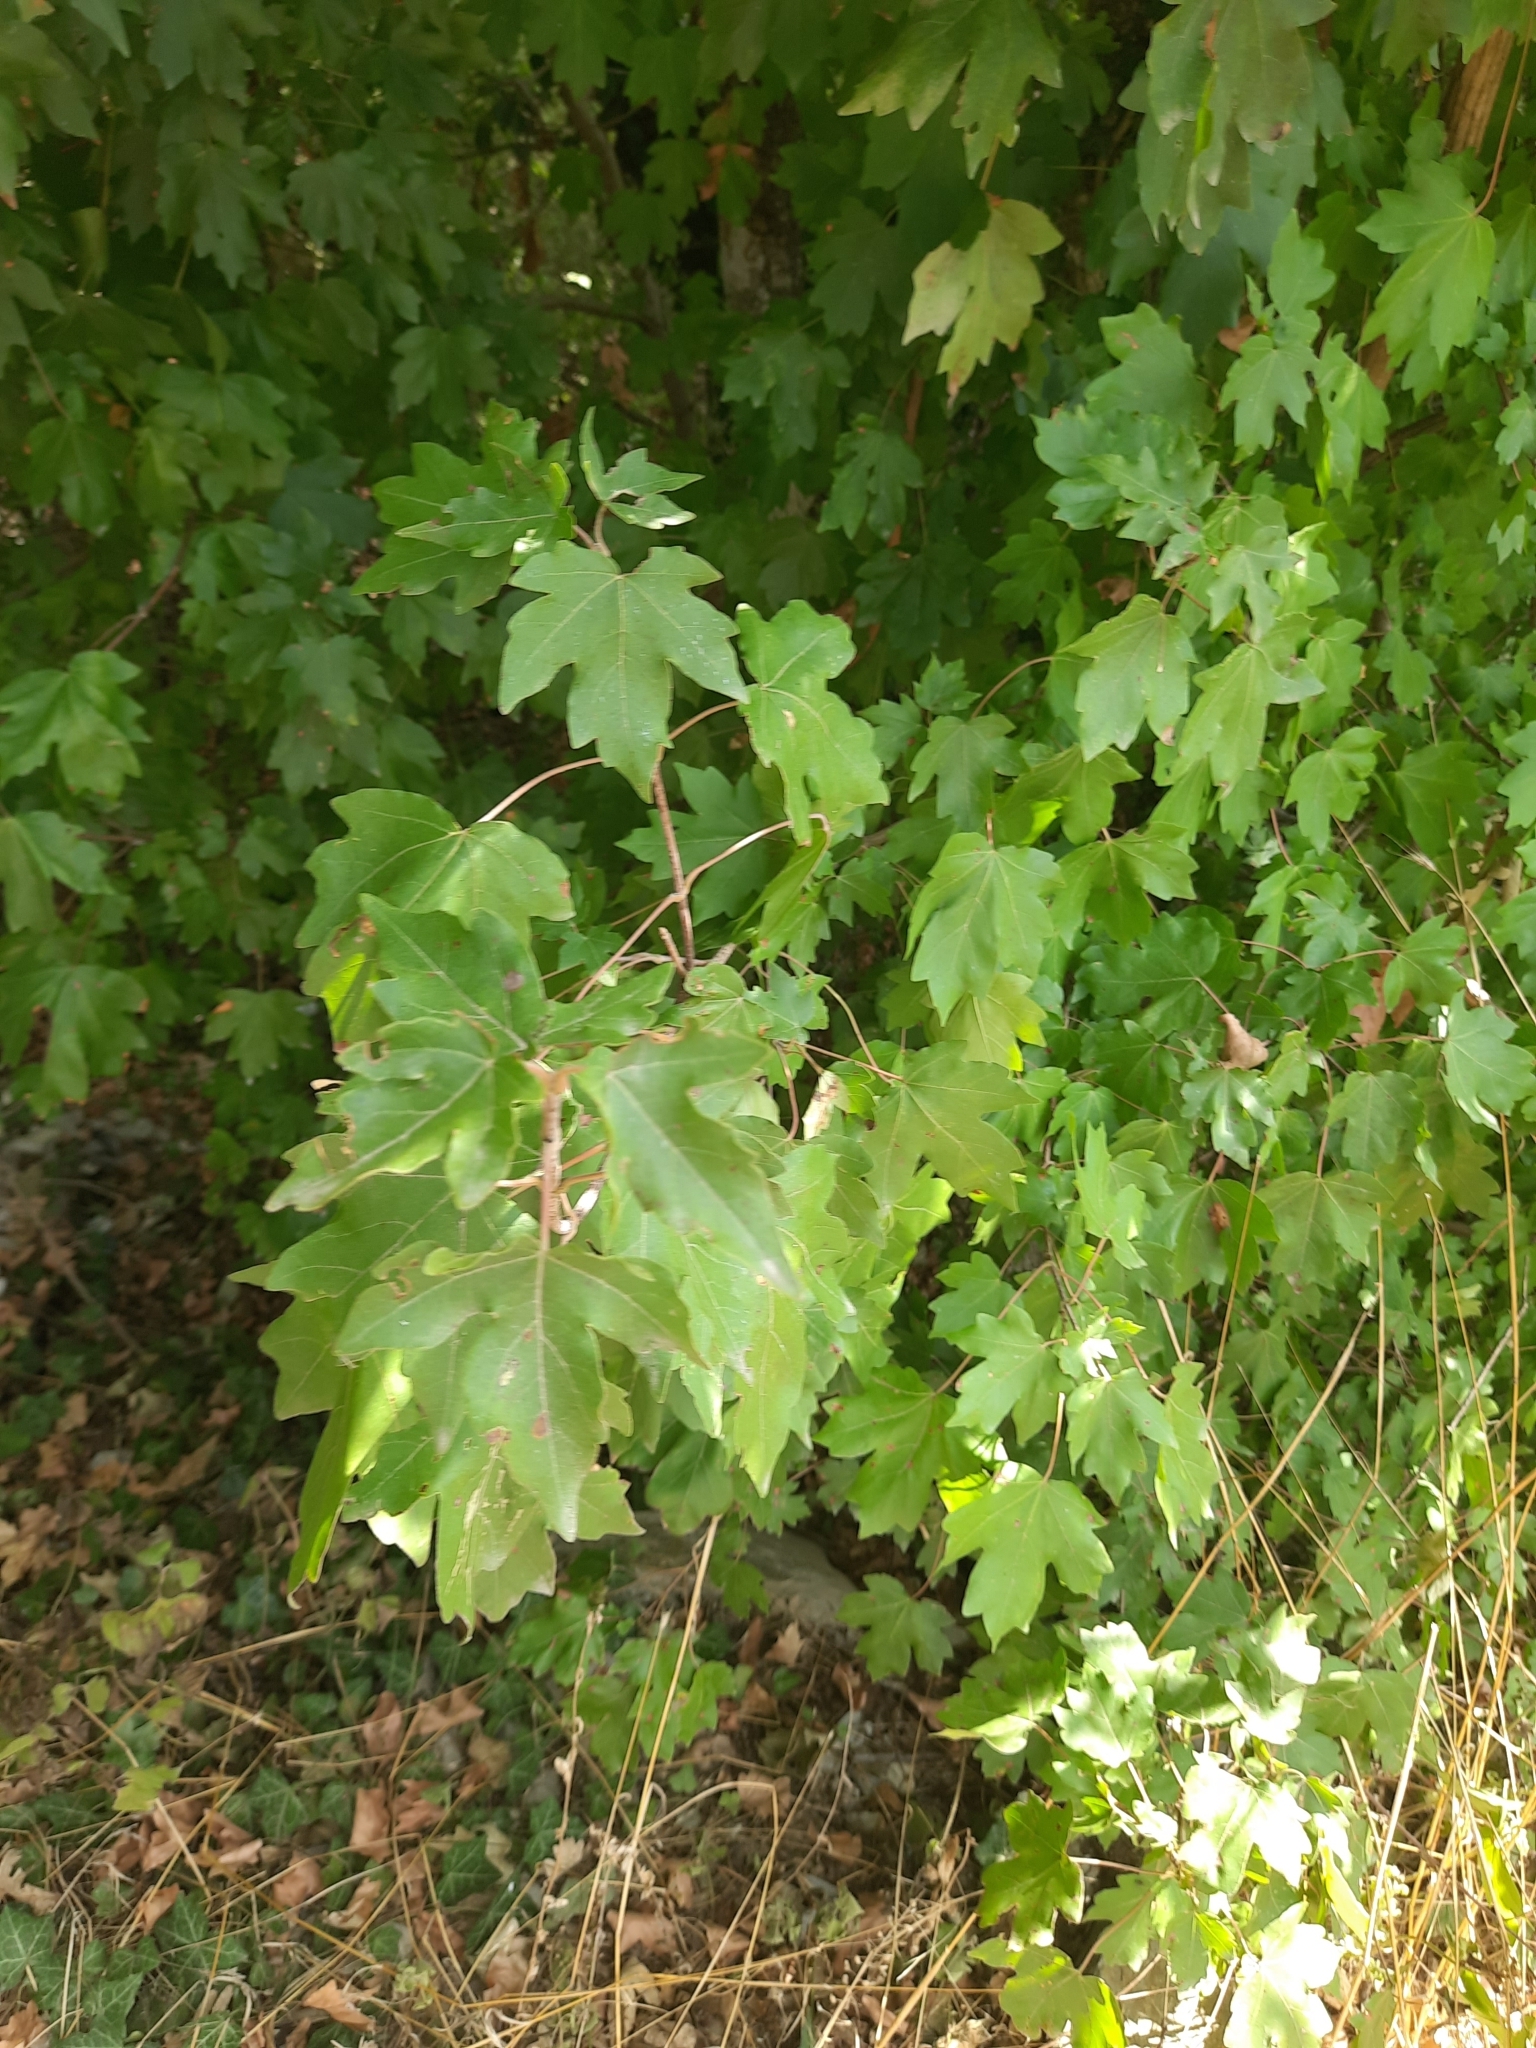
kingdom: Plantae
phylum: Tracheophyta
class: Magnoliopsida
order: Sapindales
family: Sapindaceae
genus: Acer
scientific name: Acer campestre
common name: Field maple
